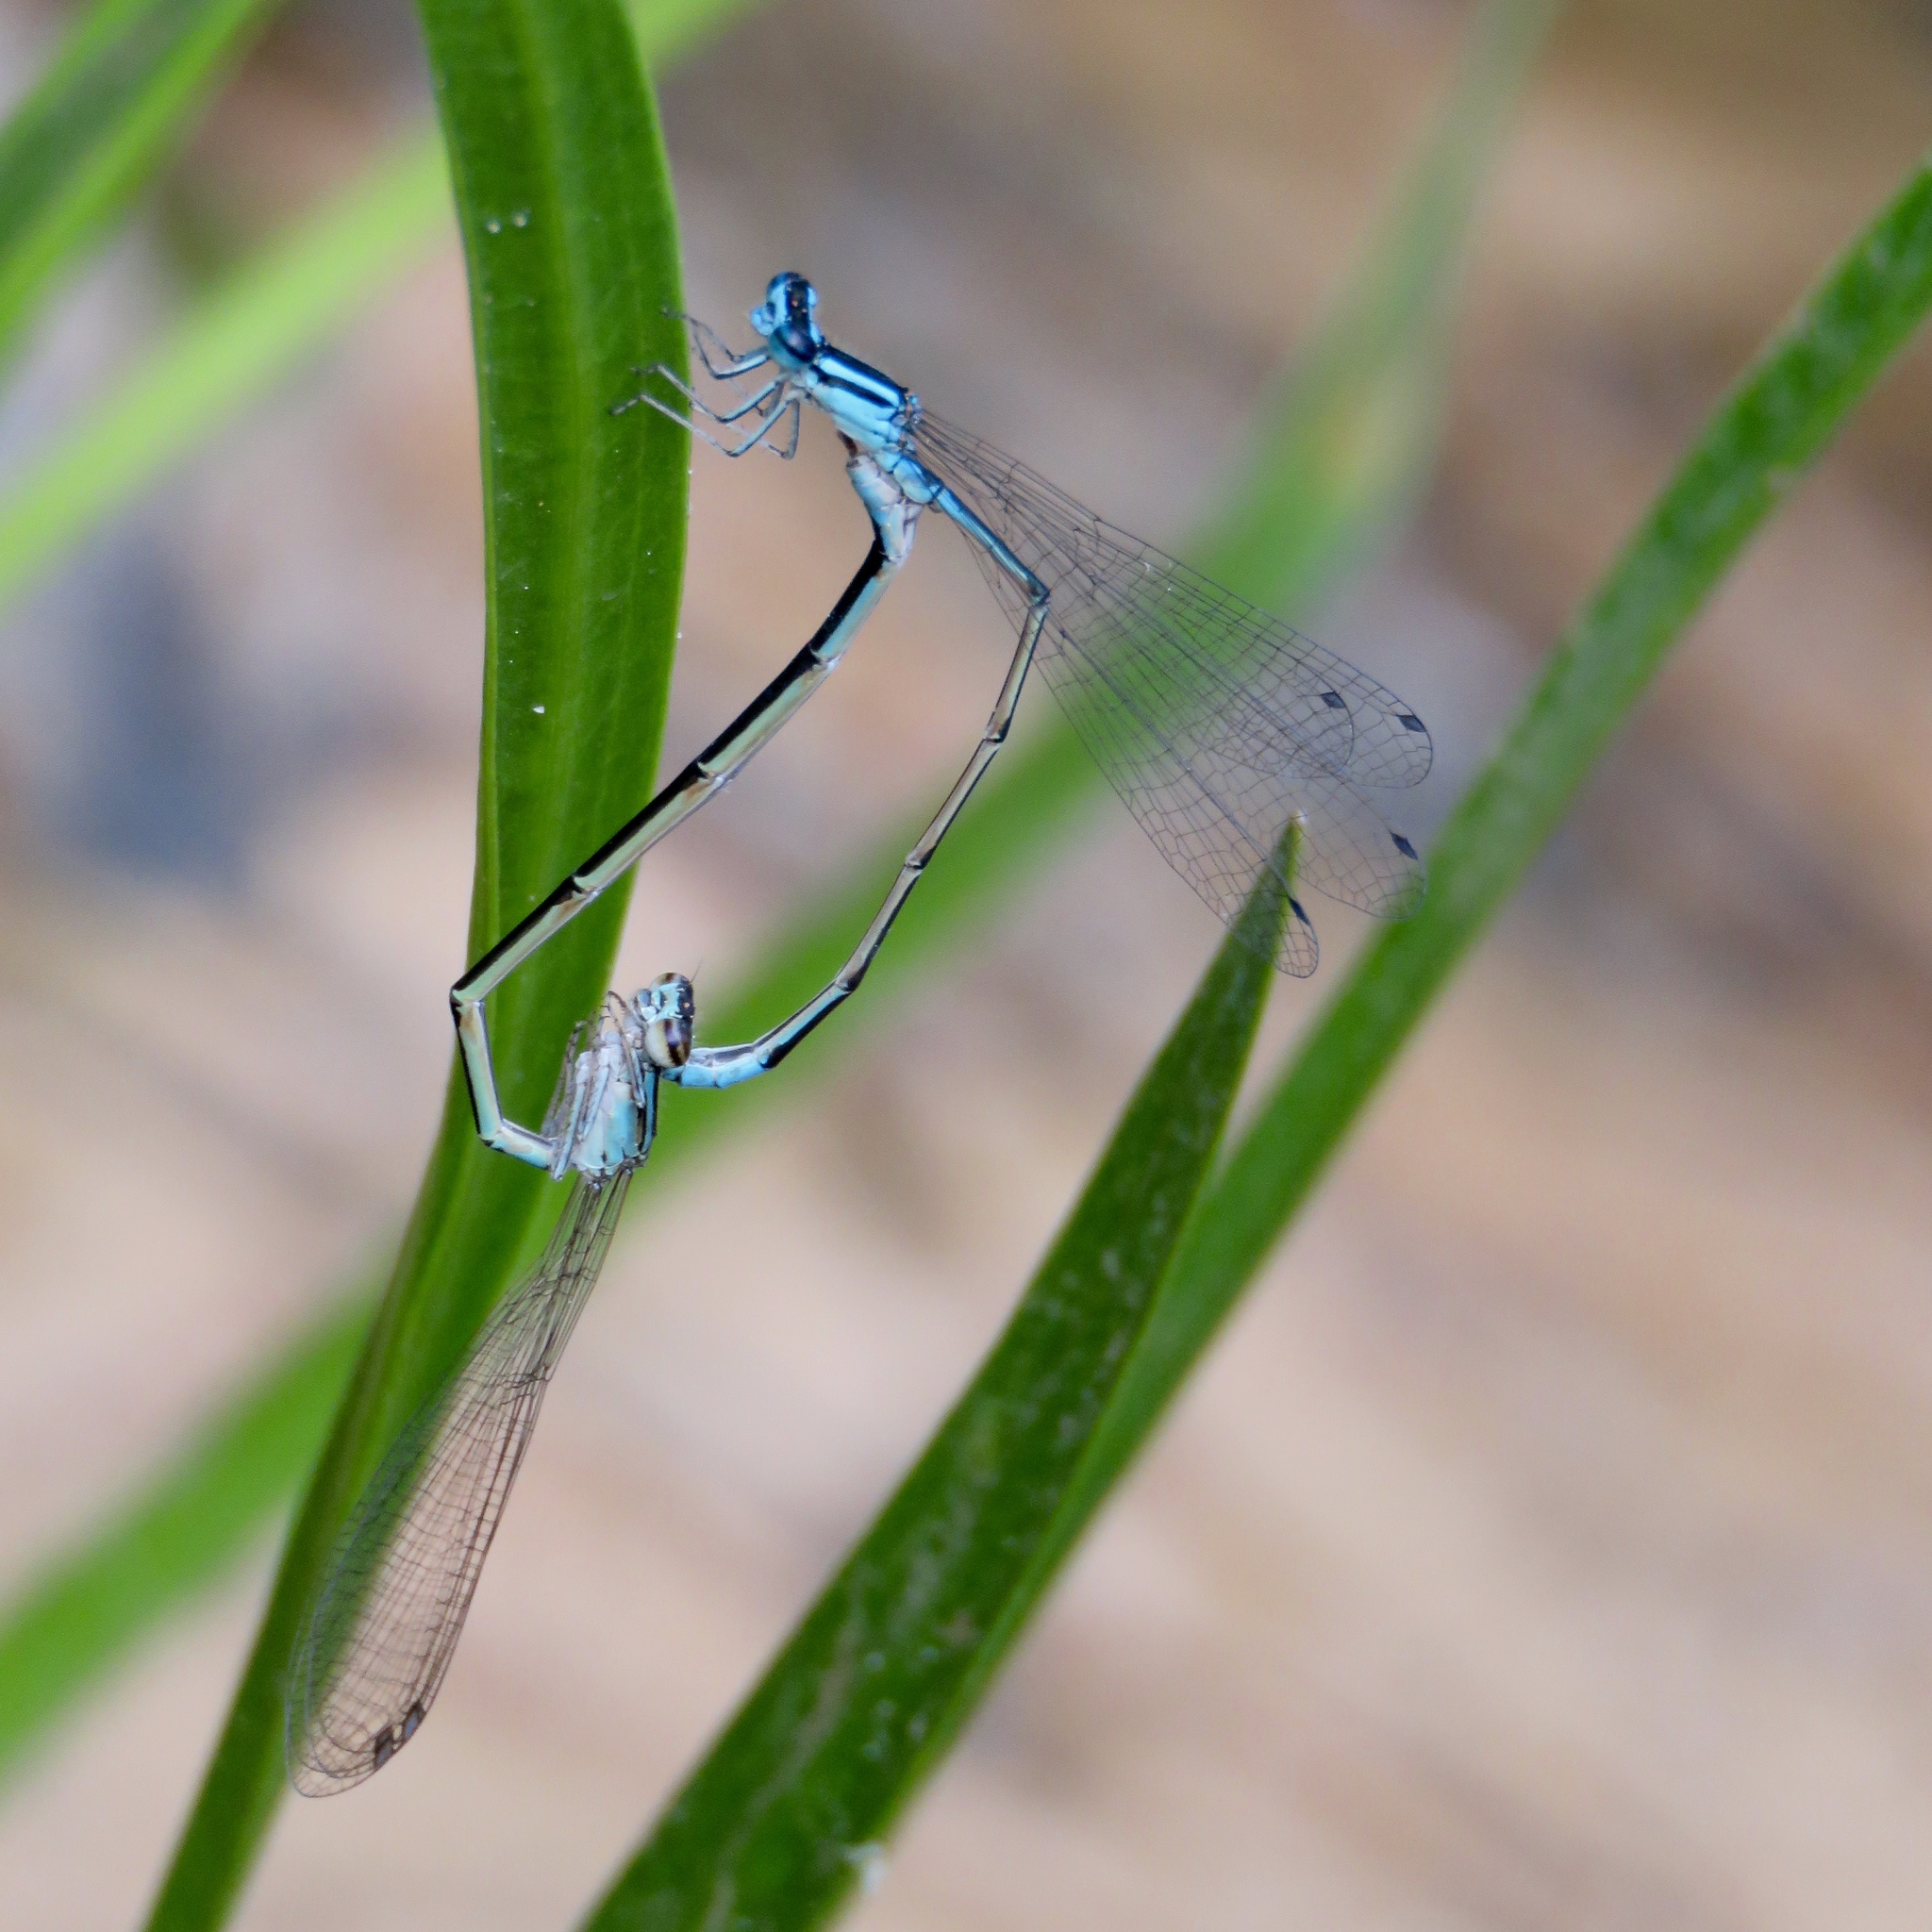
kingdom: Animalia
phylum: Arthropoda
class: Insecta
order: Odonata
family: Coenagrionidae
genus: Enallagma
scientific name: Enallagma divagans
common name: Turquoise bluet
